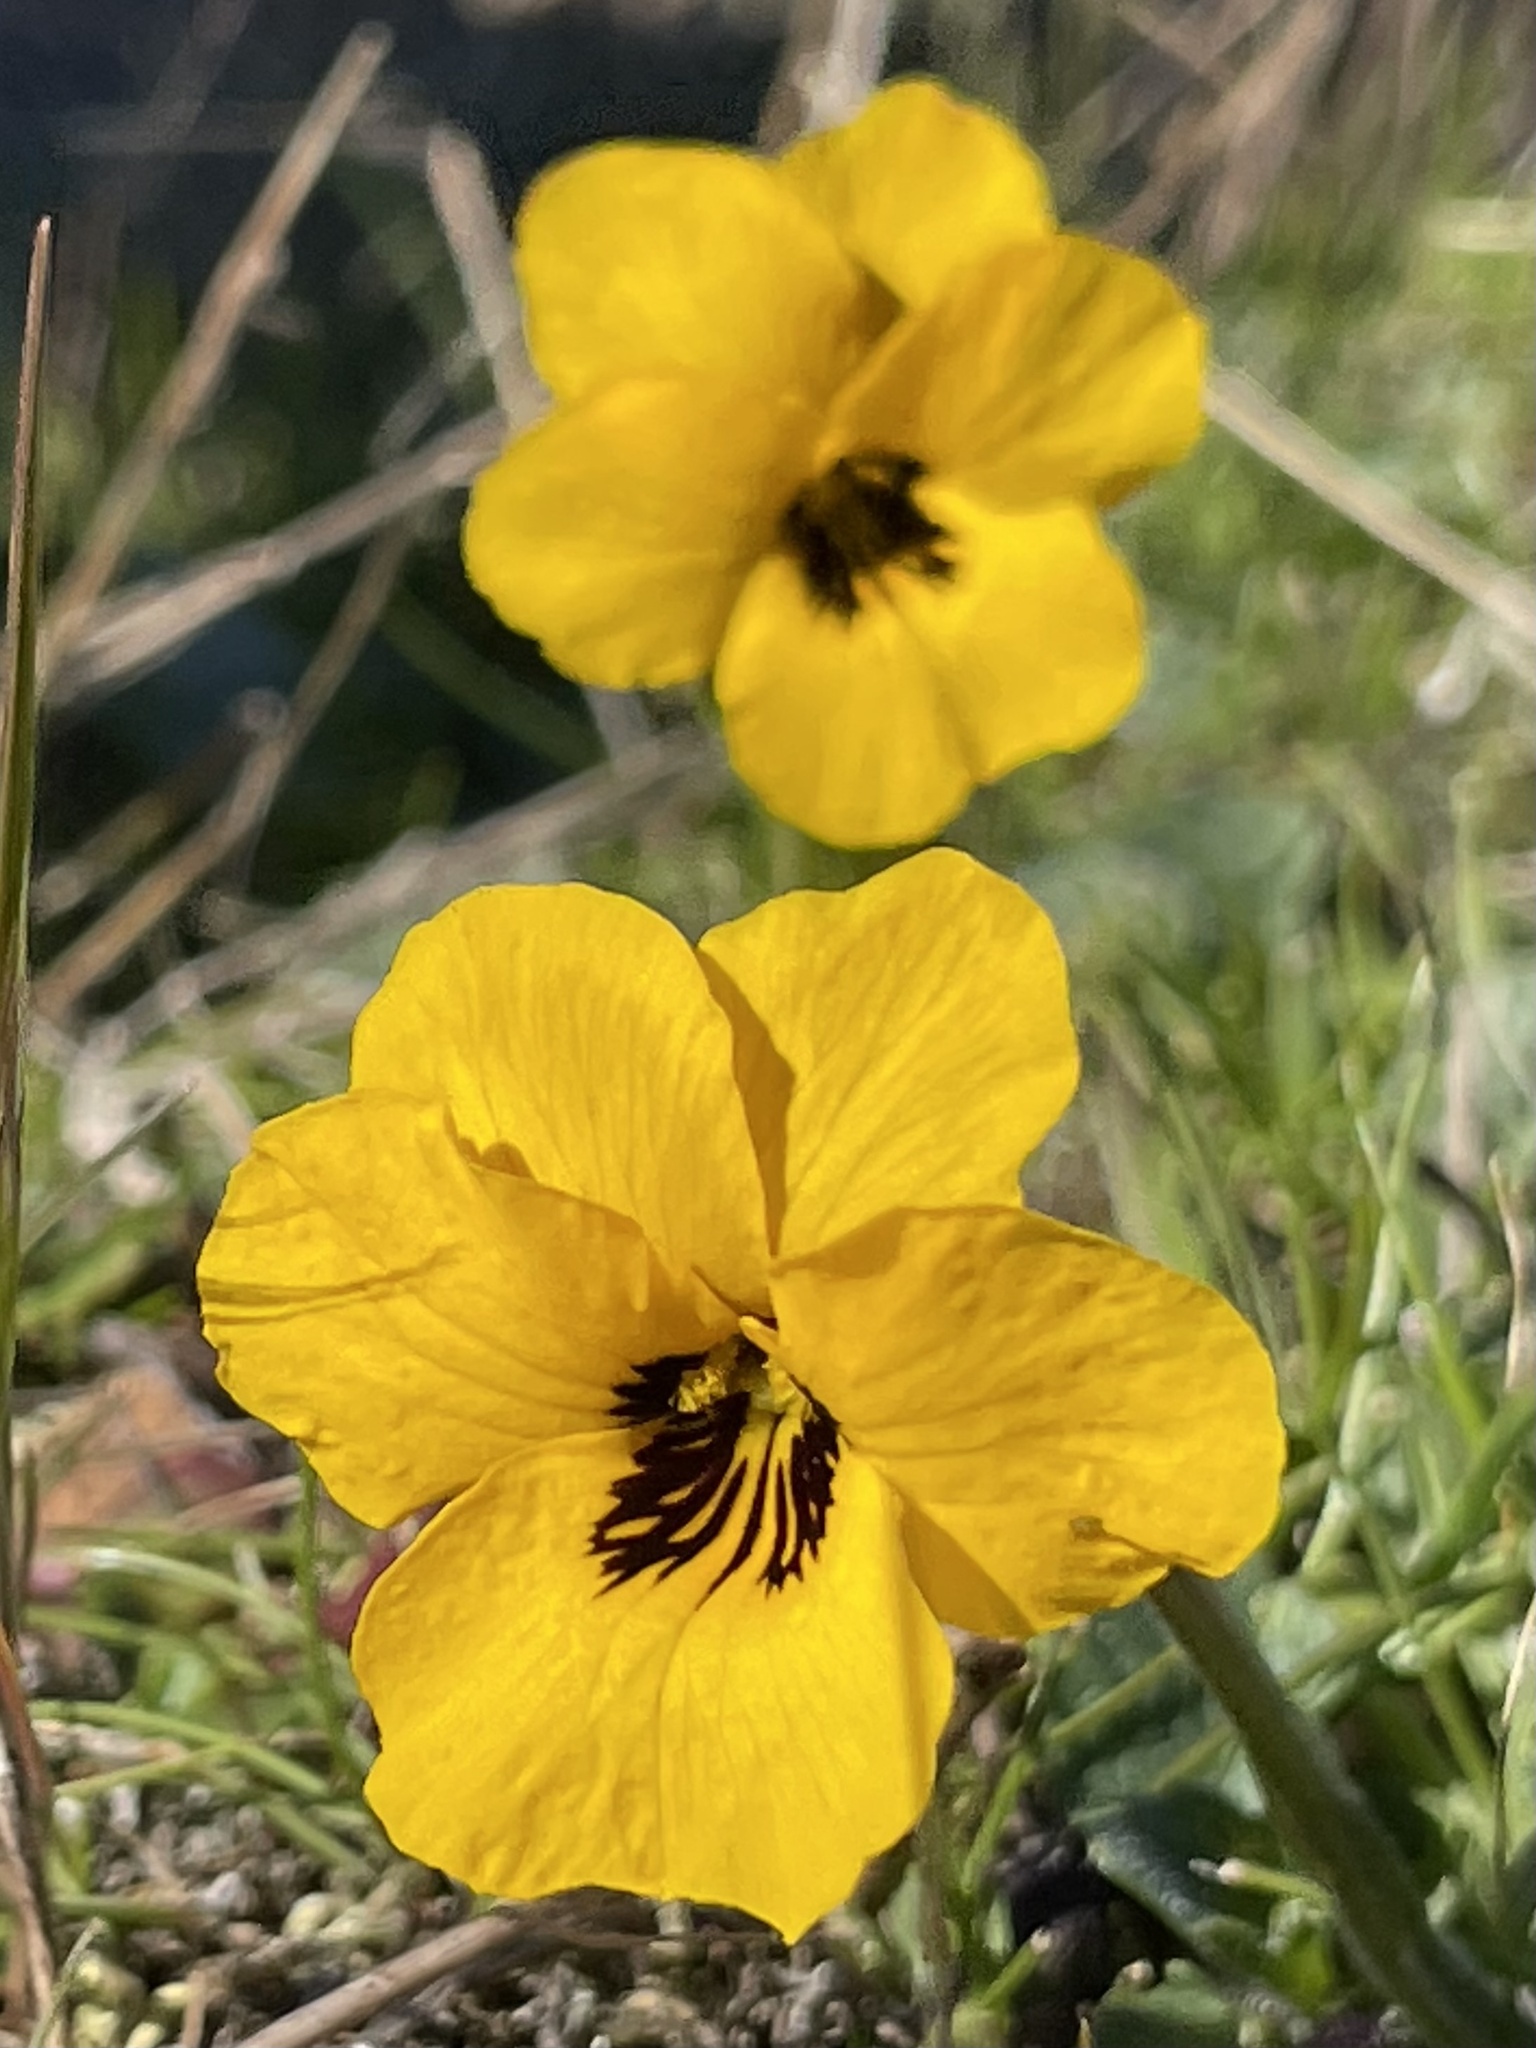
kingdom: Plantae
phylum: Tracheophyta
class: Magnoliopsida
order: Malpighiales
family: Violaceae
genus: Viola
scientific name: Viola pedunculata
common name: California golden violet
